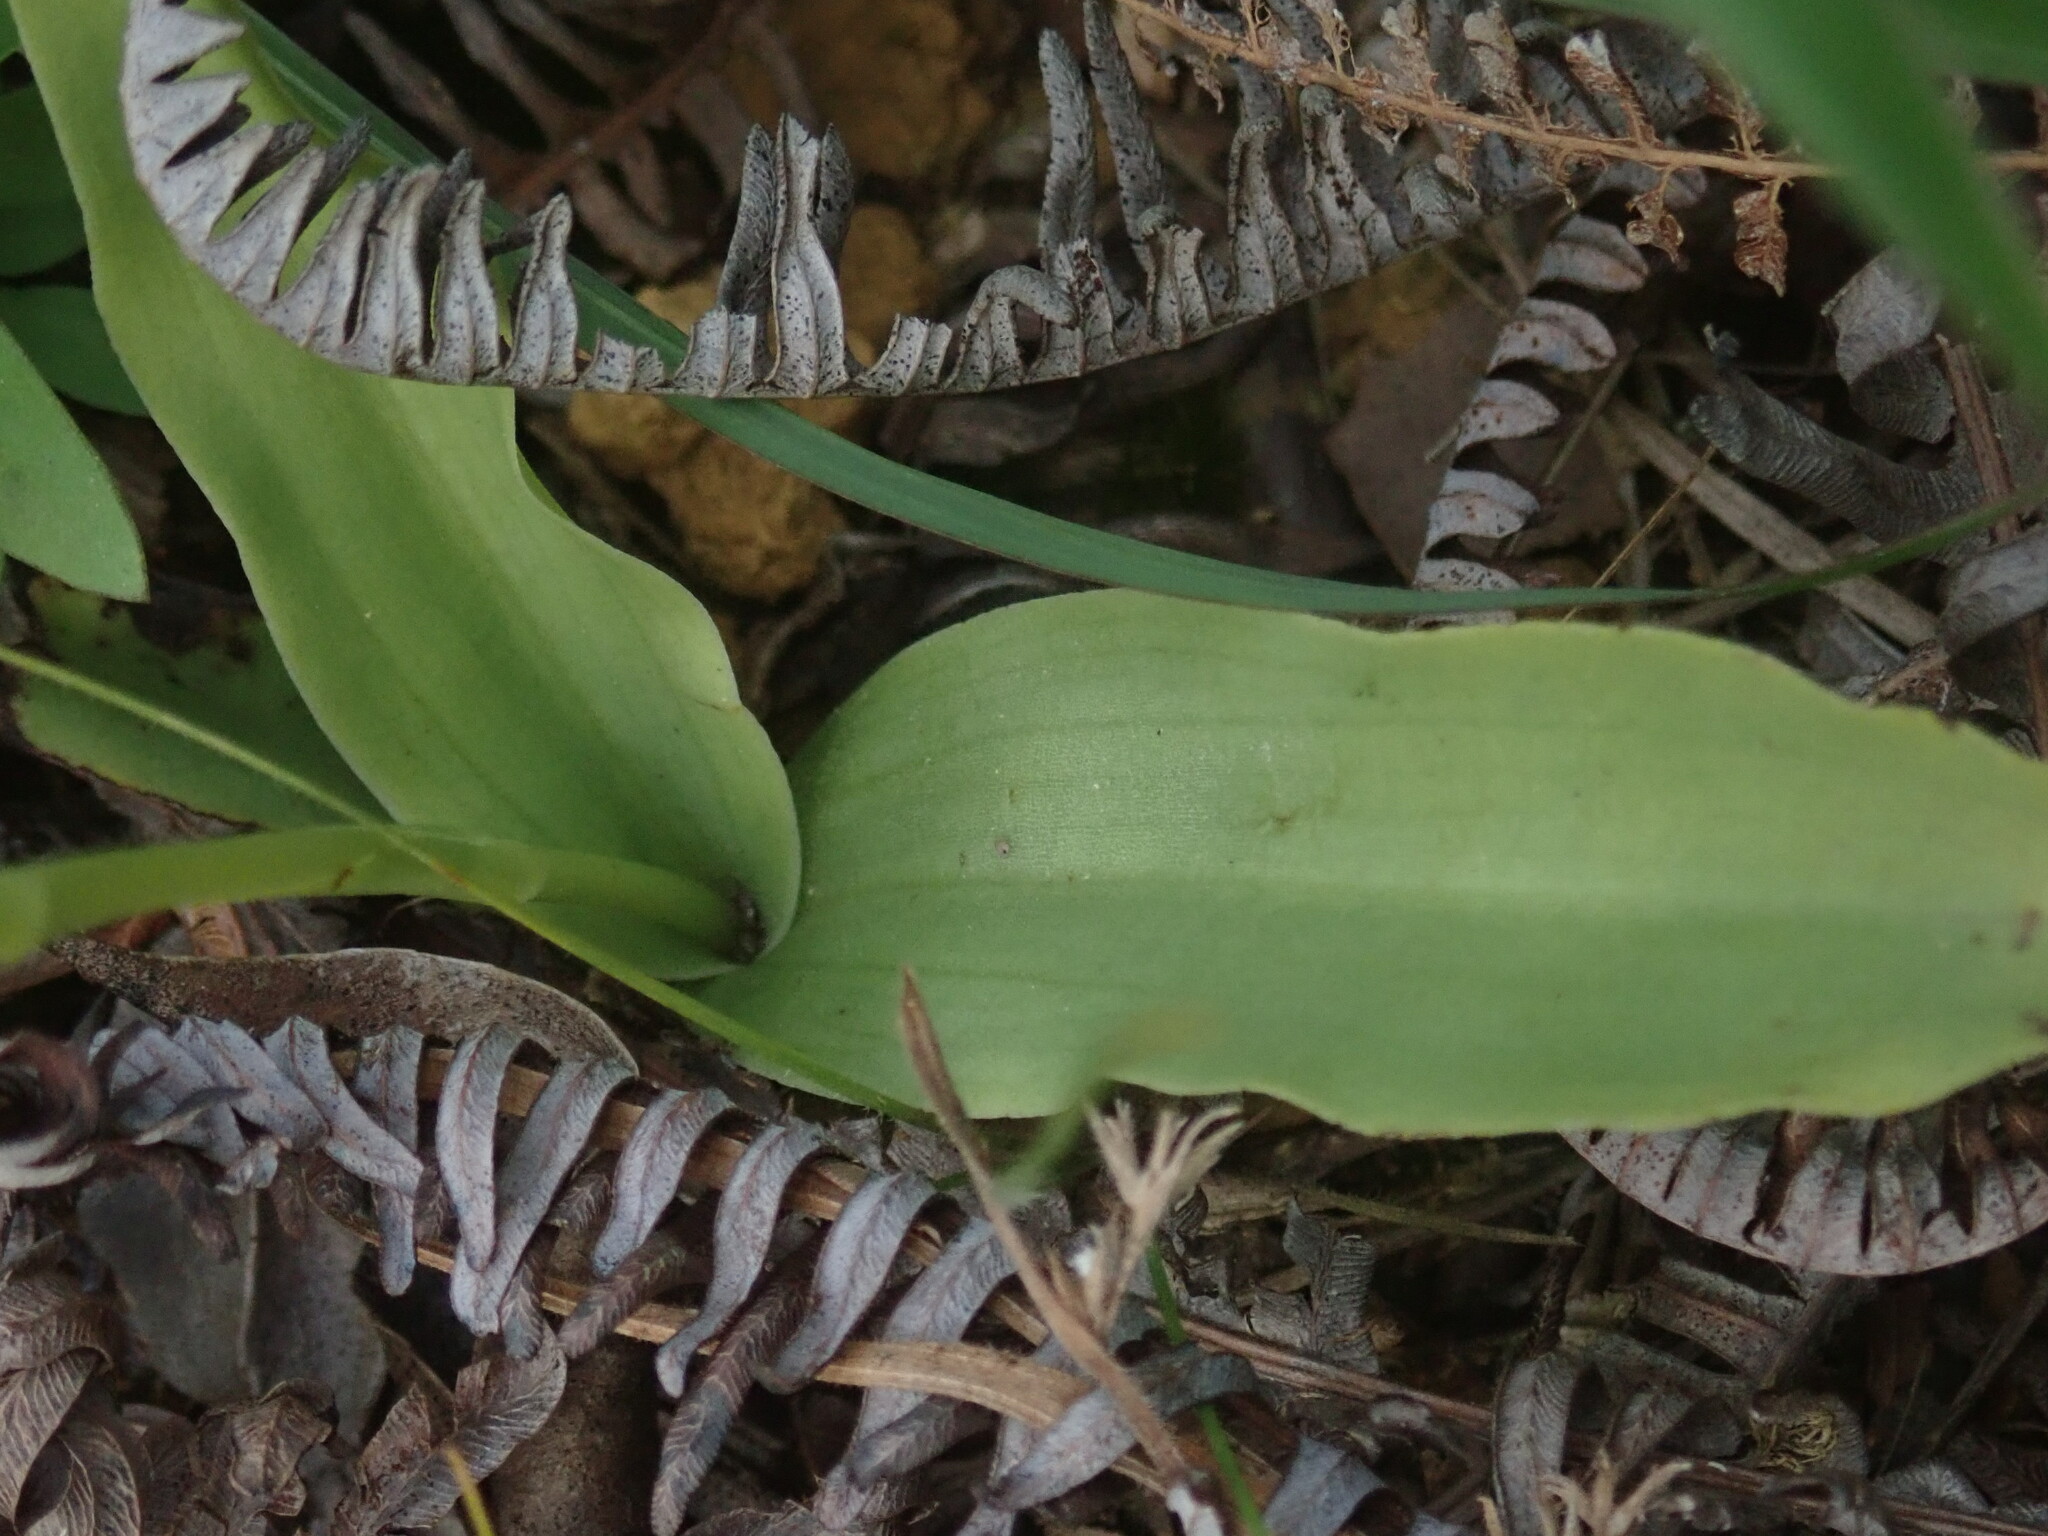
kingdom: Plantae
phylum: Tracheophyta
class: Liliopsida
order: Asparagales
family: Orchidaceae
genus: Peristylus
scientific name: Peristylus tentaculatus
